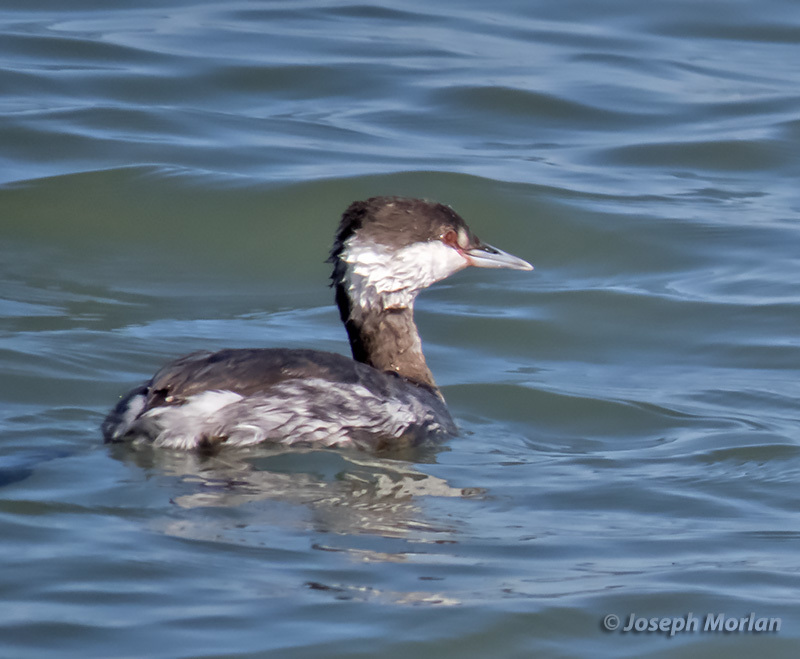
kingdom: Animalia
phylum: Chordata
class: Aves
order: Podicipediformes
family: Podicipedidae
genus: Podiceps
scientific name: Podiceps auritus
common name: Horned grebe
